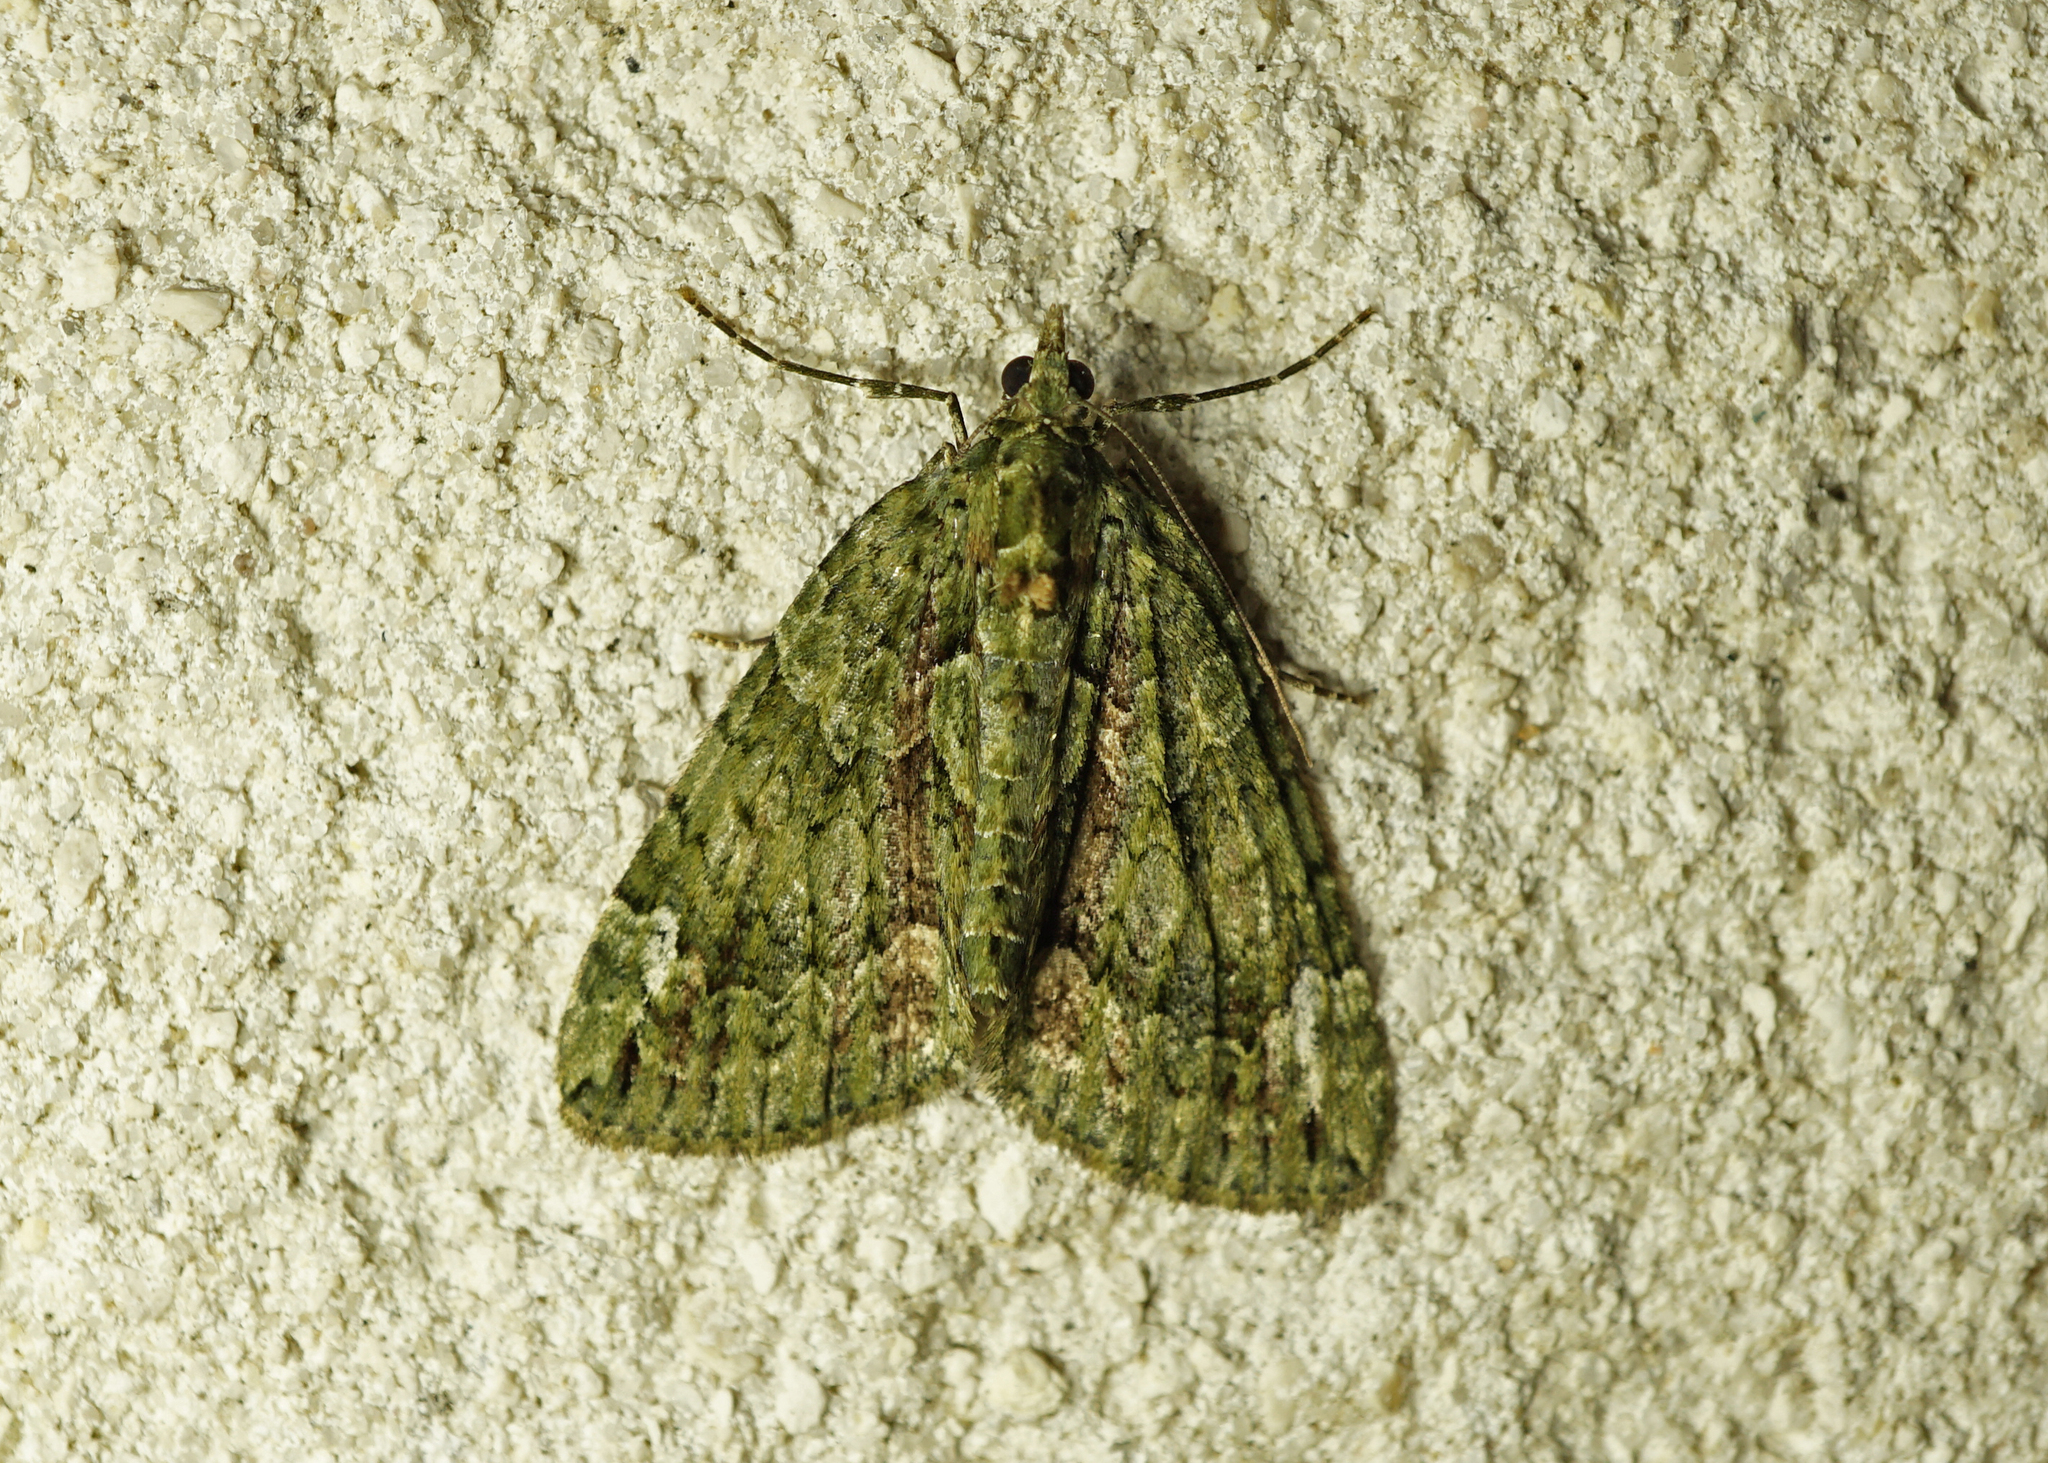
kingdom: Animalia
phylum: Arthropoda
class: Insecta
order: Lepidoptera
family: Geometridae
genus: Chloroclysta
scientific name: Chloroclysta siterata
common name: Red-green carpet
